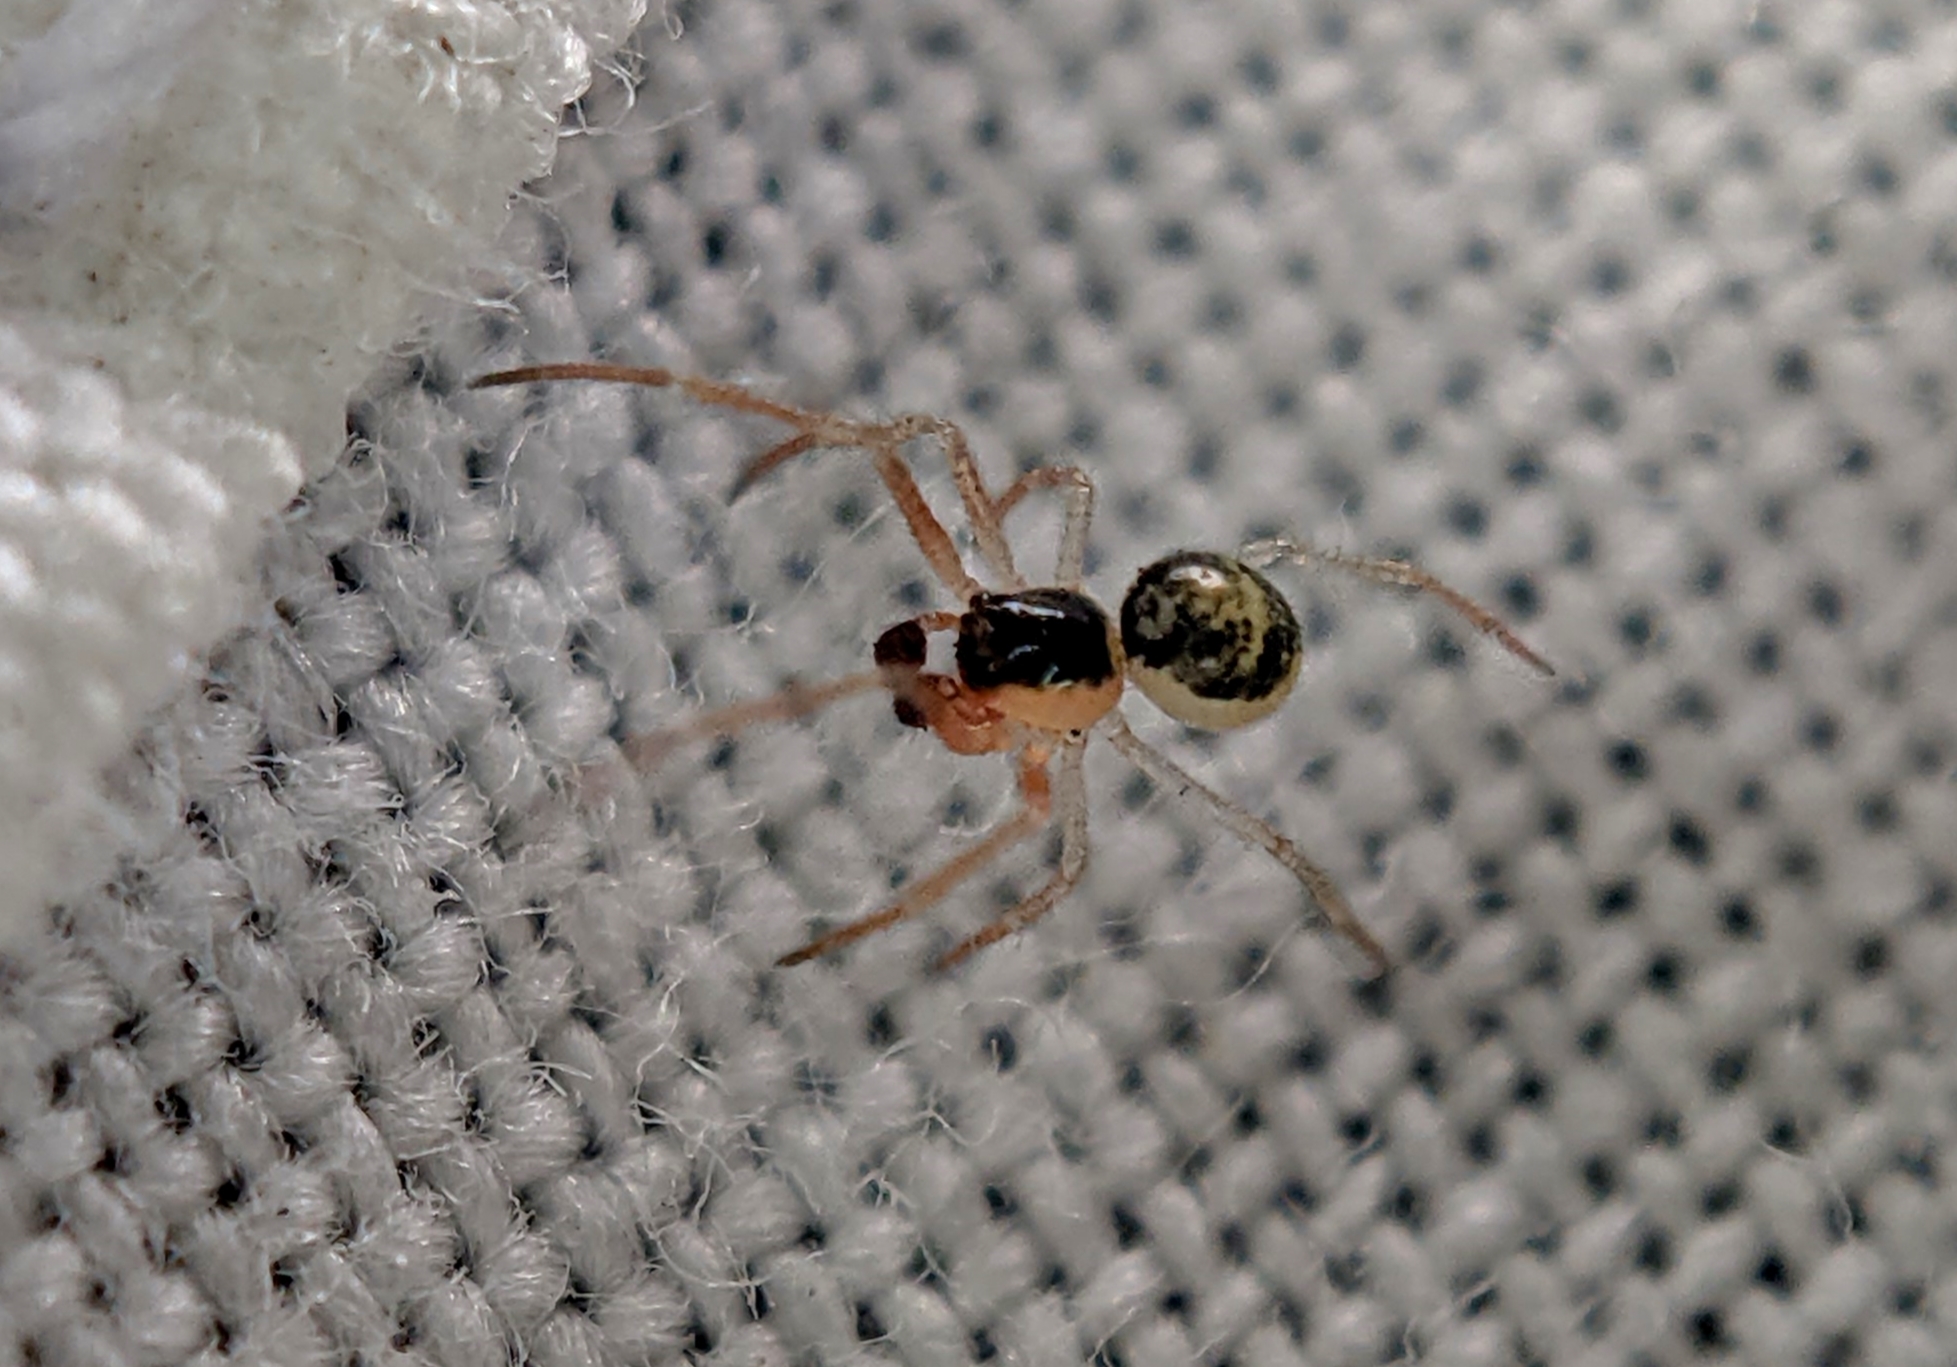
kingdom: Animalia
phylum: Arthropoda
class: Arachnida
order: Araneae
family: Theridiidae
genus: Paidiscura
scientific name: Paidiscura pallens
